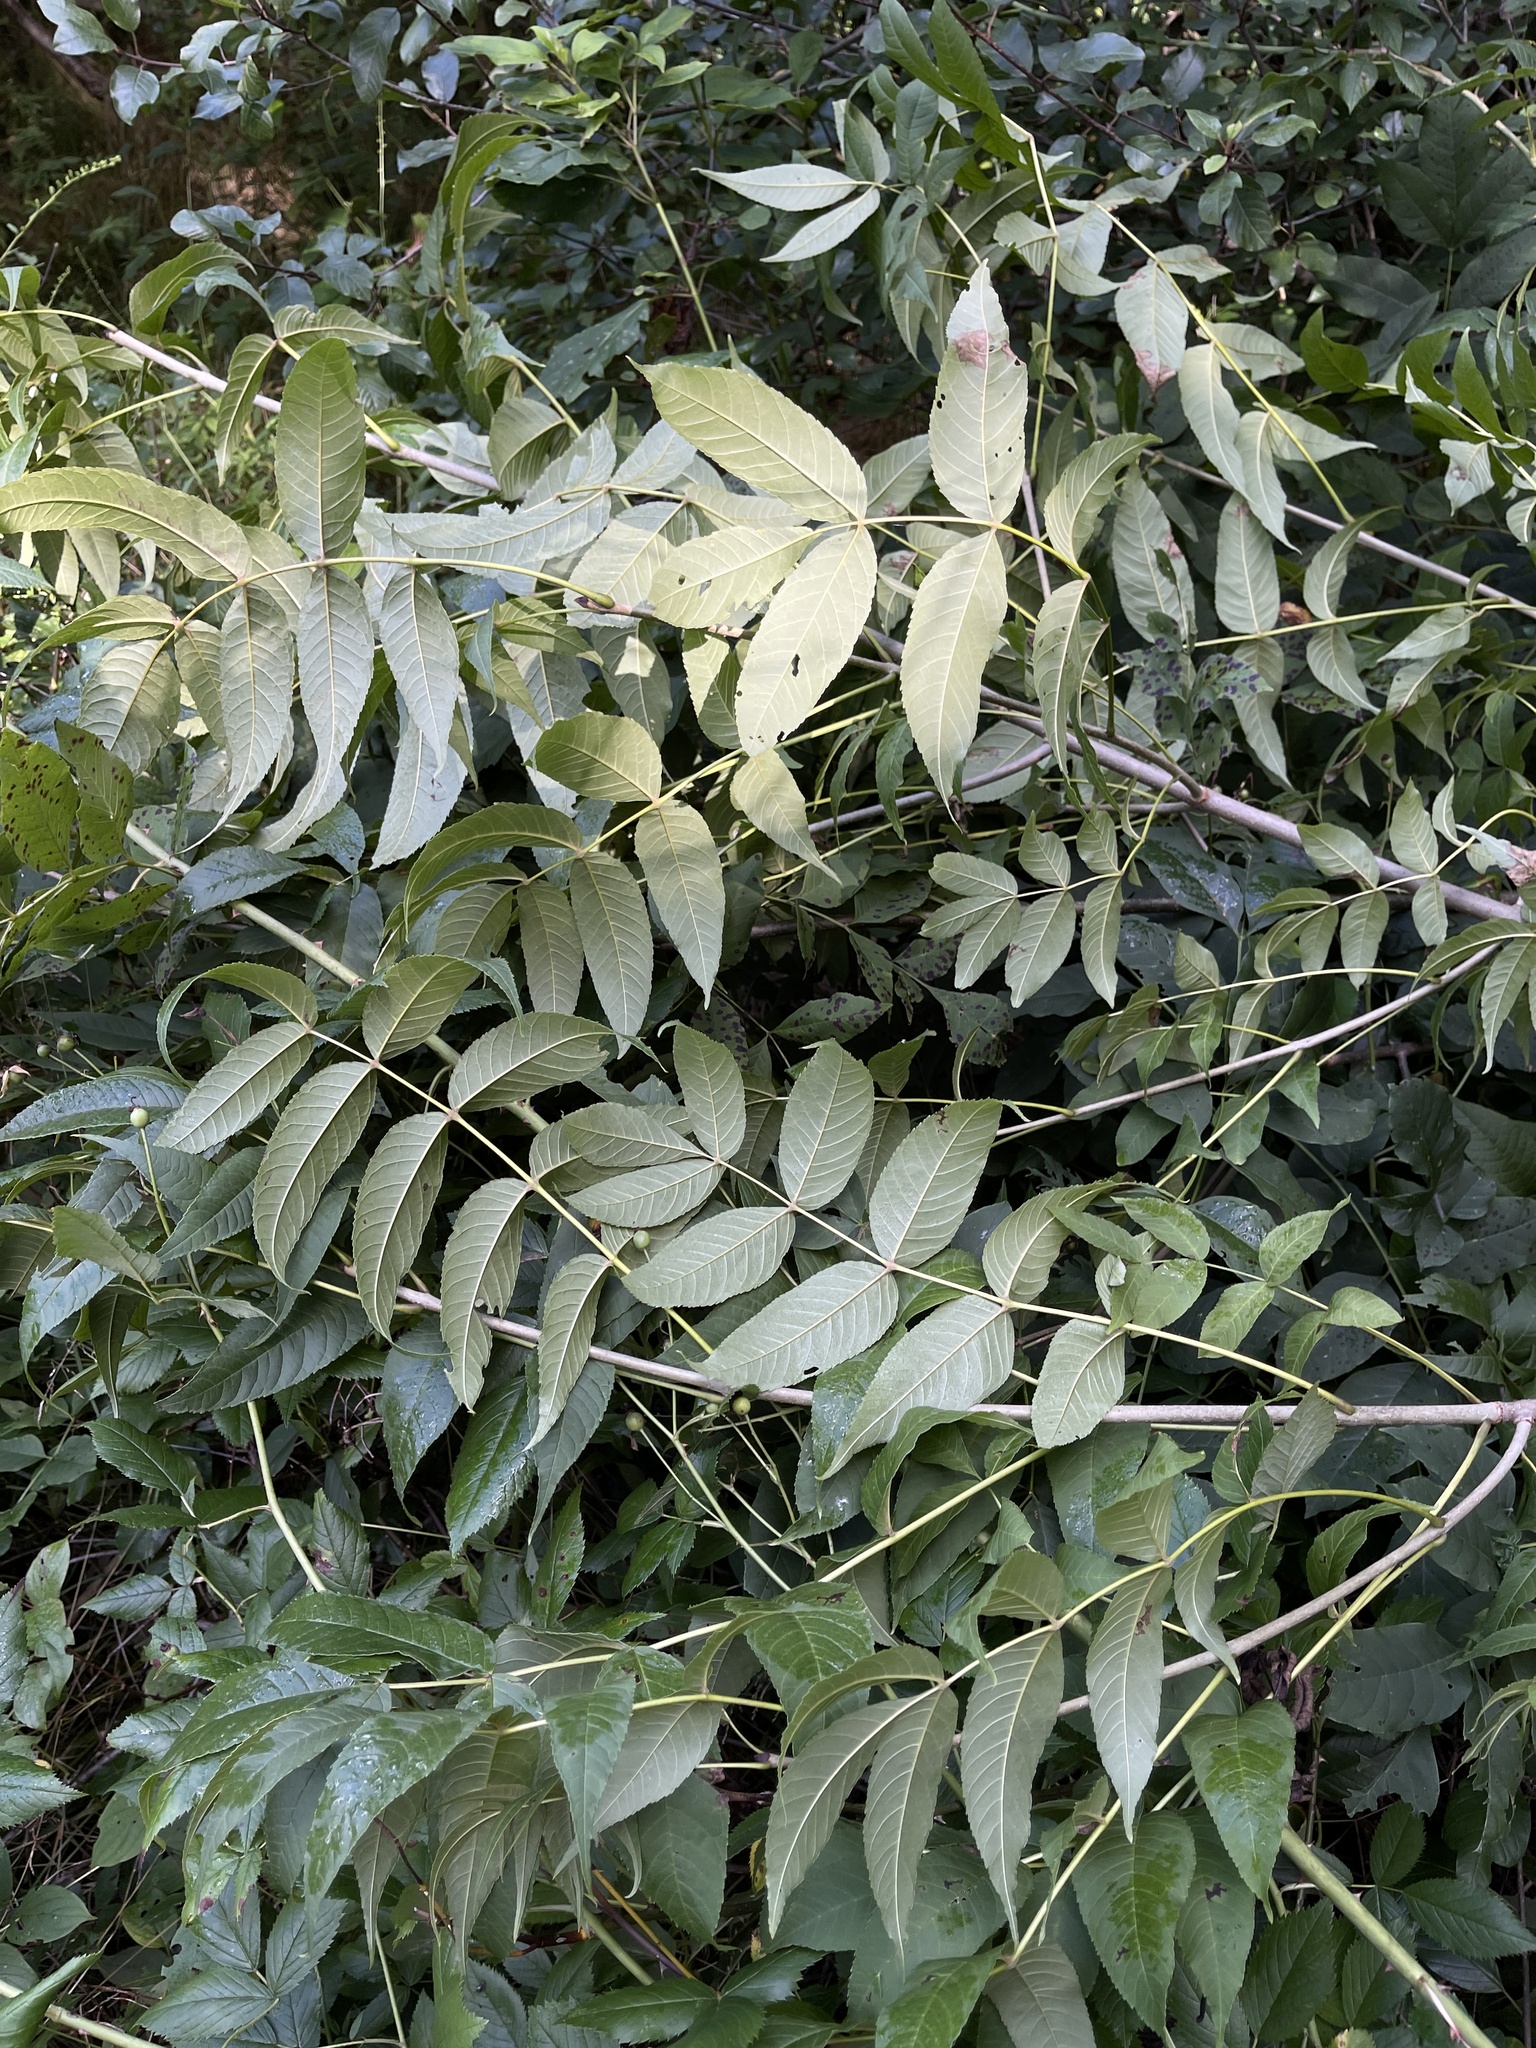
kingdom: Plantae
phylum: Tracheophyta
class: Magnoliopsida
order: Lamiales
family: Oleaceae
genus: Fraxinus
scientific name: Fraxinus nigra
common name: Black ash
